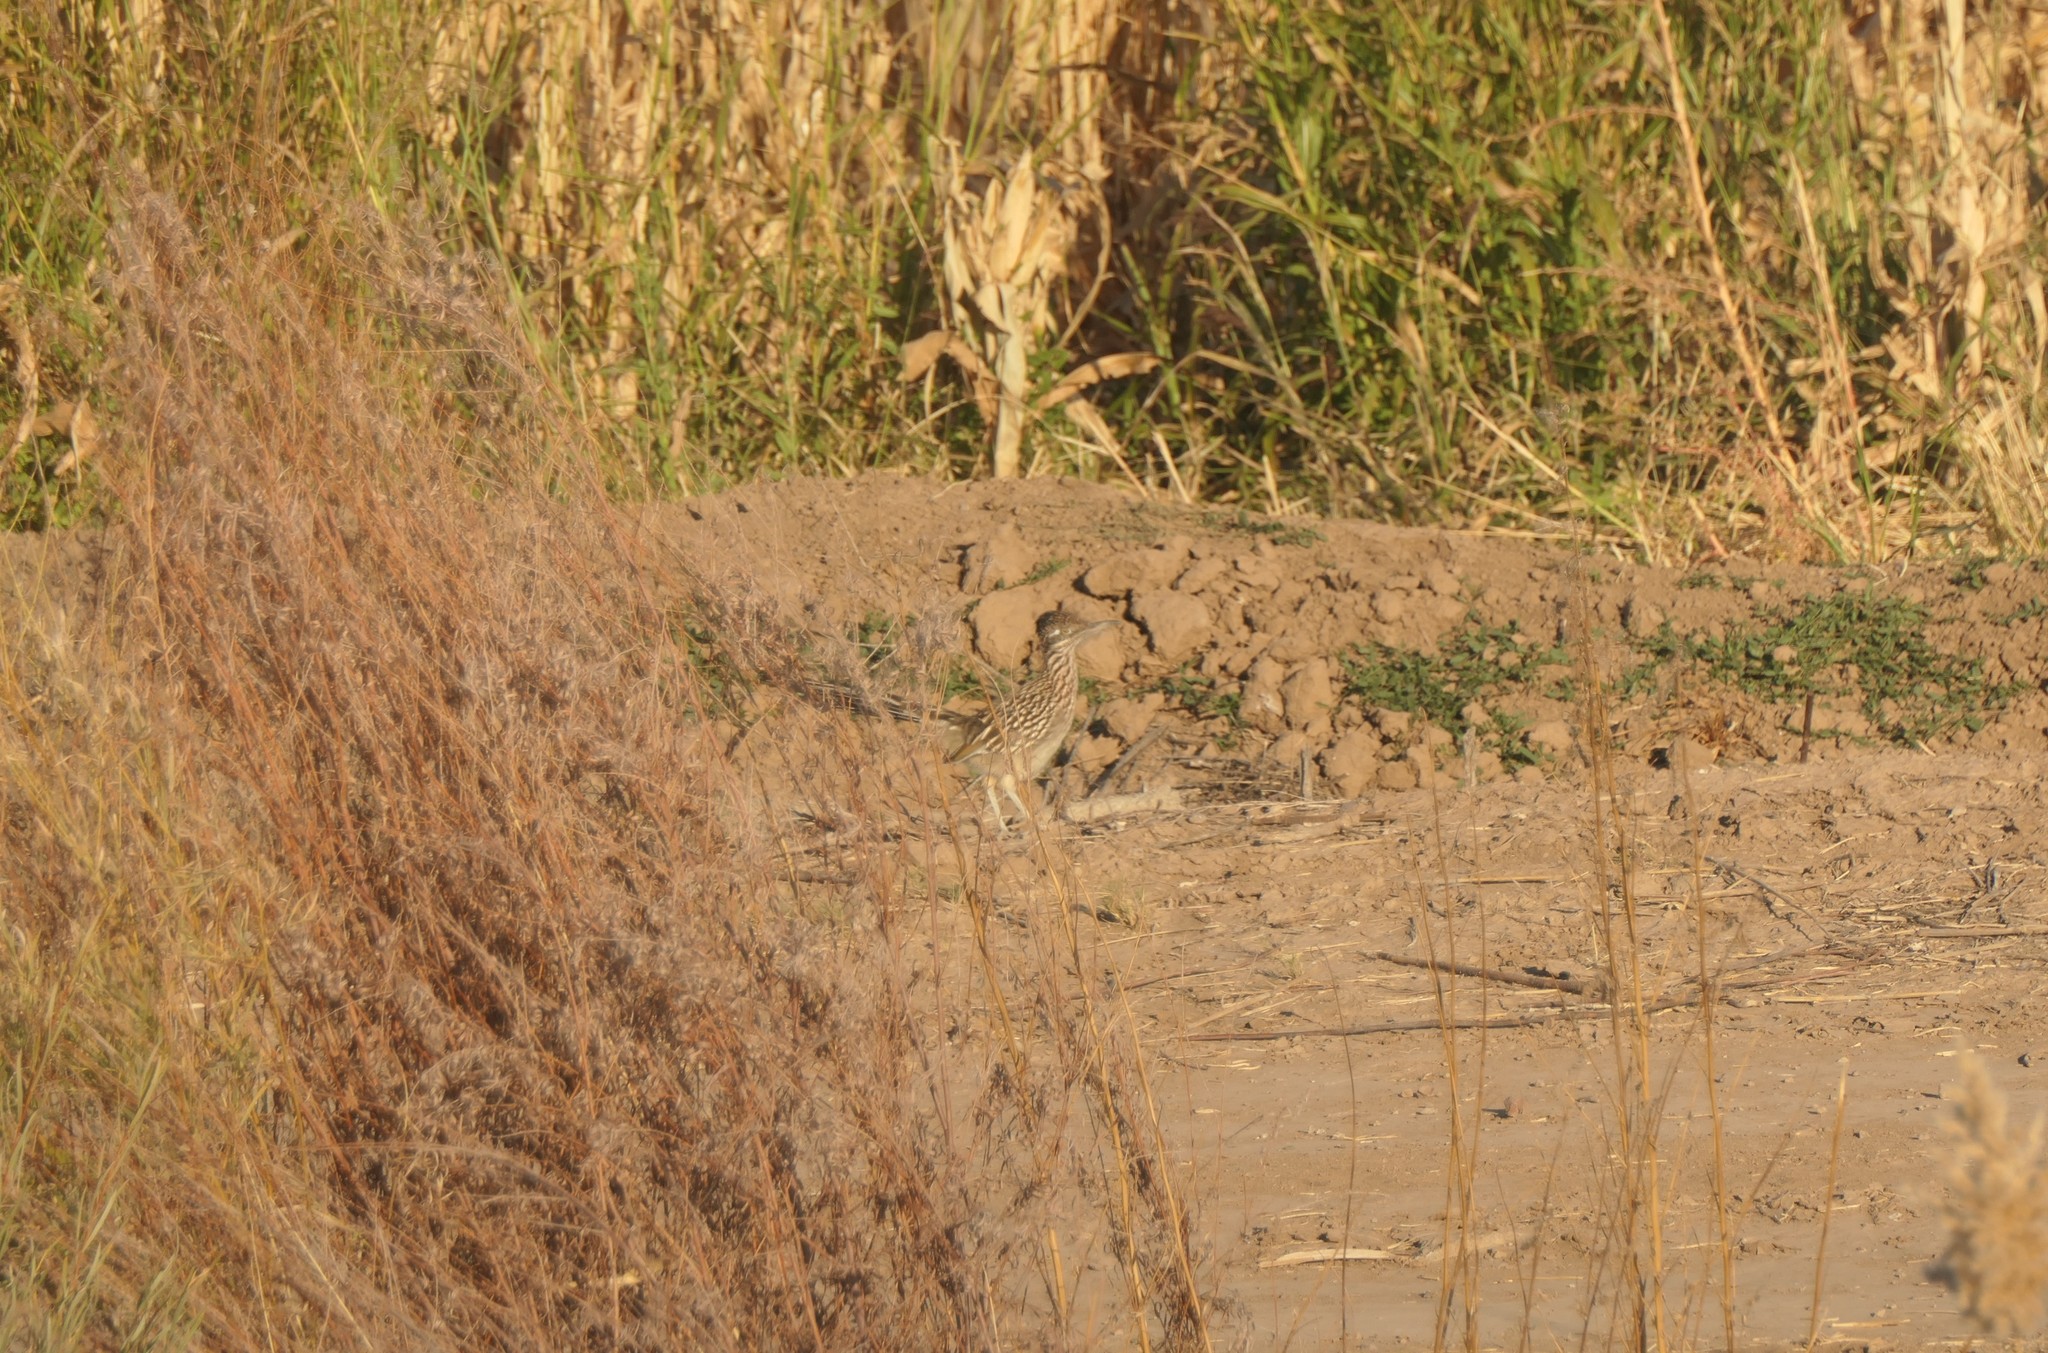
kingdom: Animalia
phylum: Chordata
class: Aves
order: Cuculiformes
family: Cuculidae
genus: Geococcyx
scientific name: Geococcyx californianus
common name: Greater roadrunner
